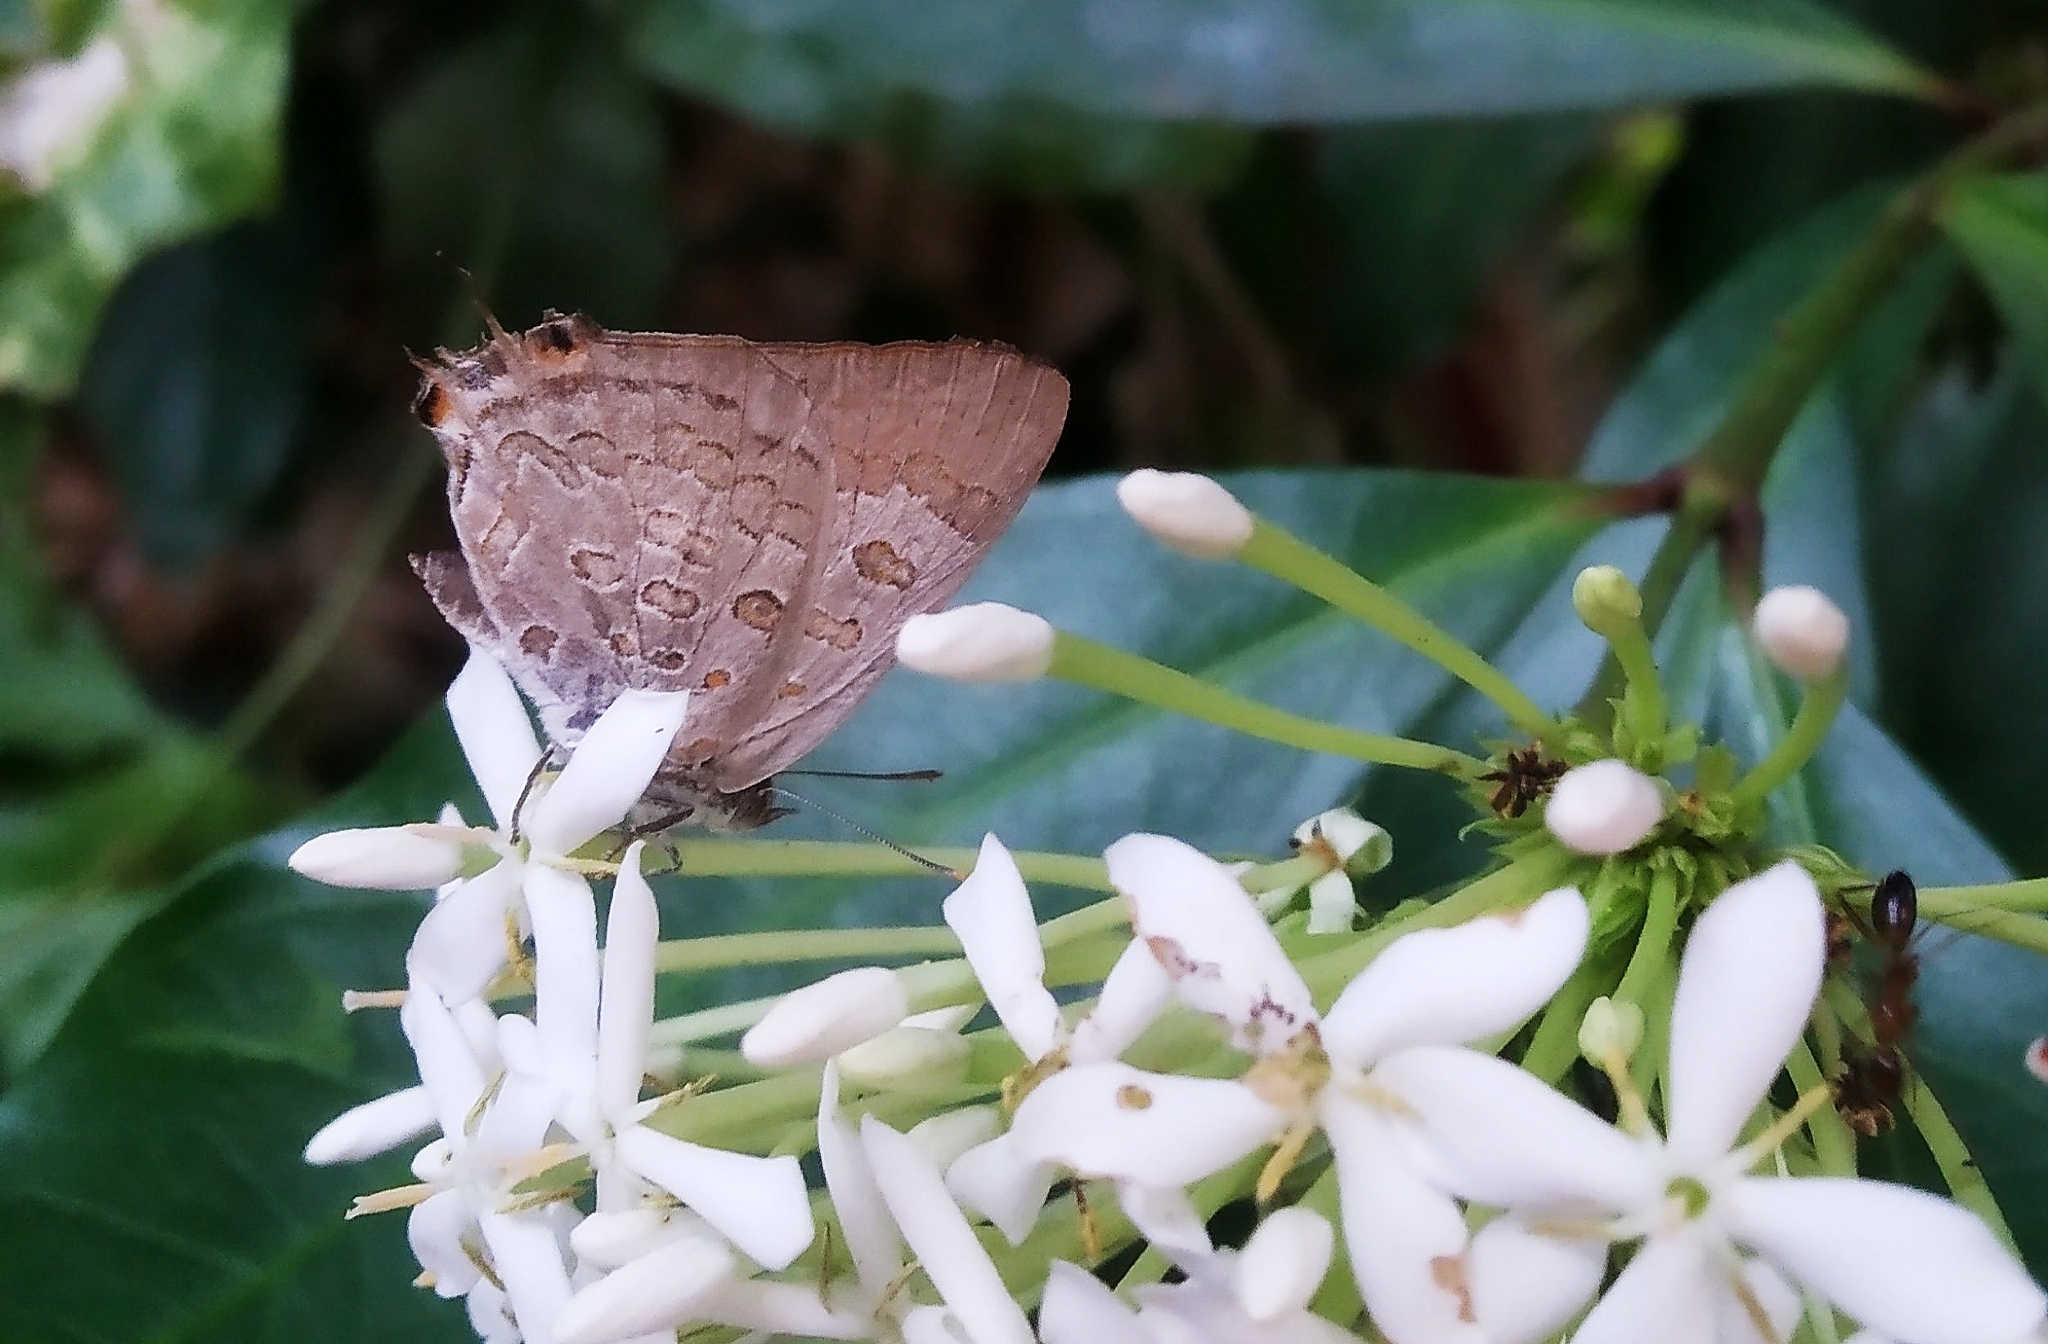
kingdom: Animalia
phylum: Arthropoda
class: Insecta
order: Lepidoptera
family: Lycaenidae
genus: Zesius
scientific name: Zesius chrysomallus
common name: Redspot
